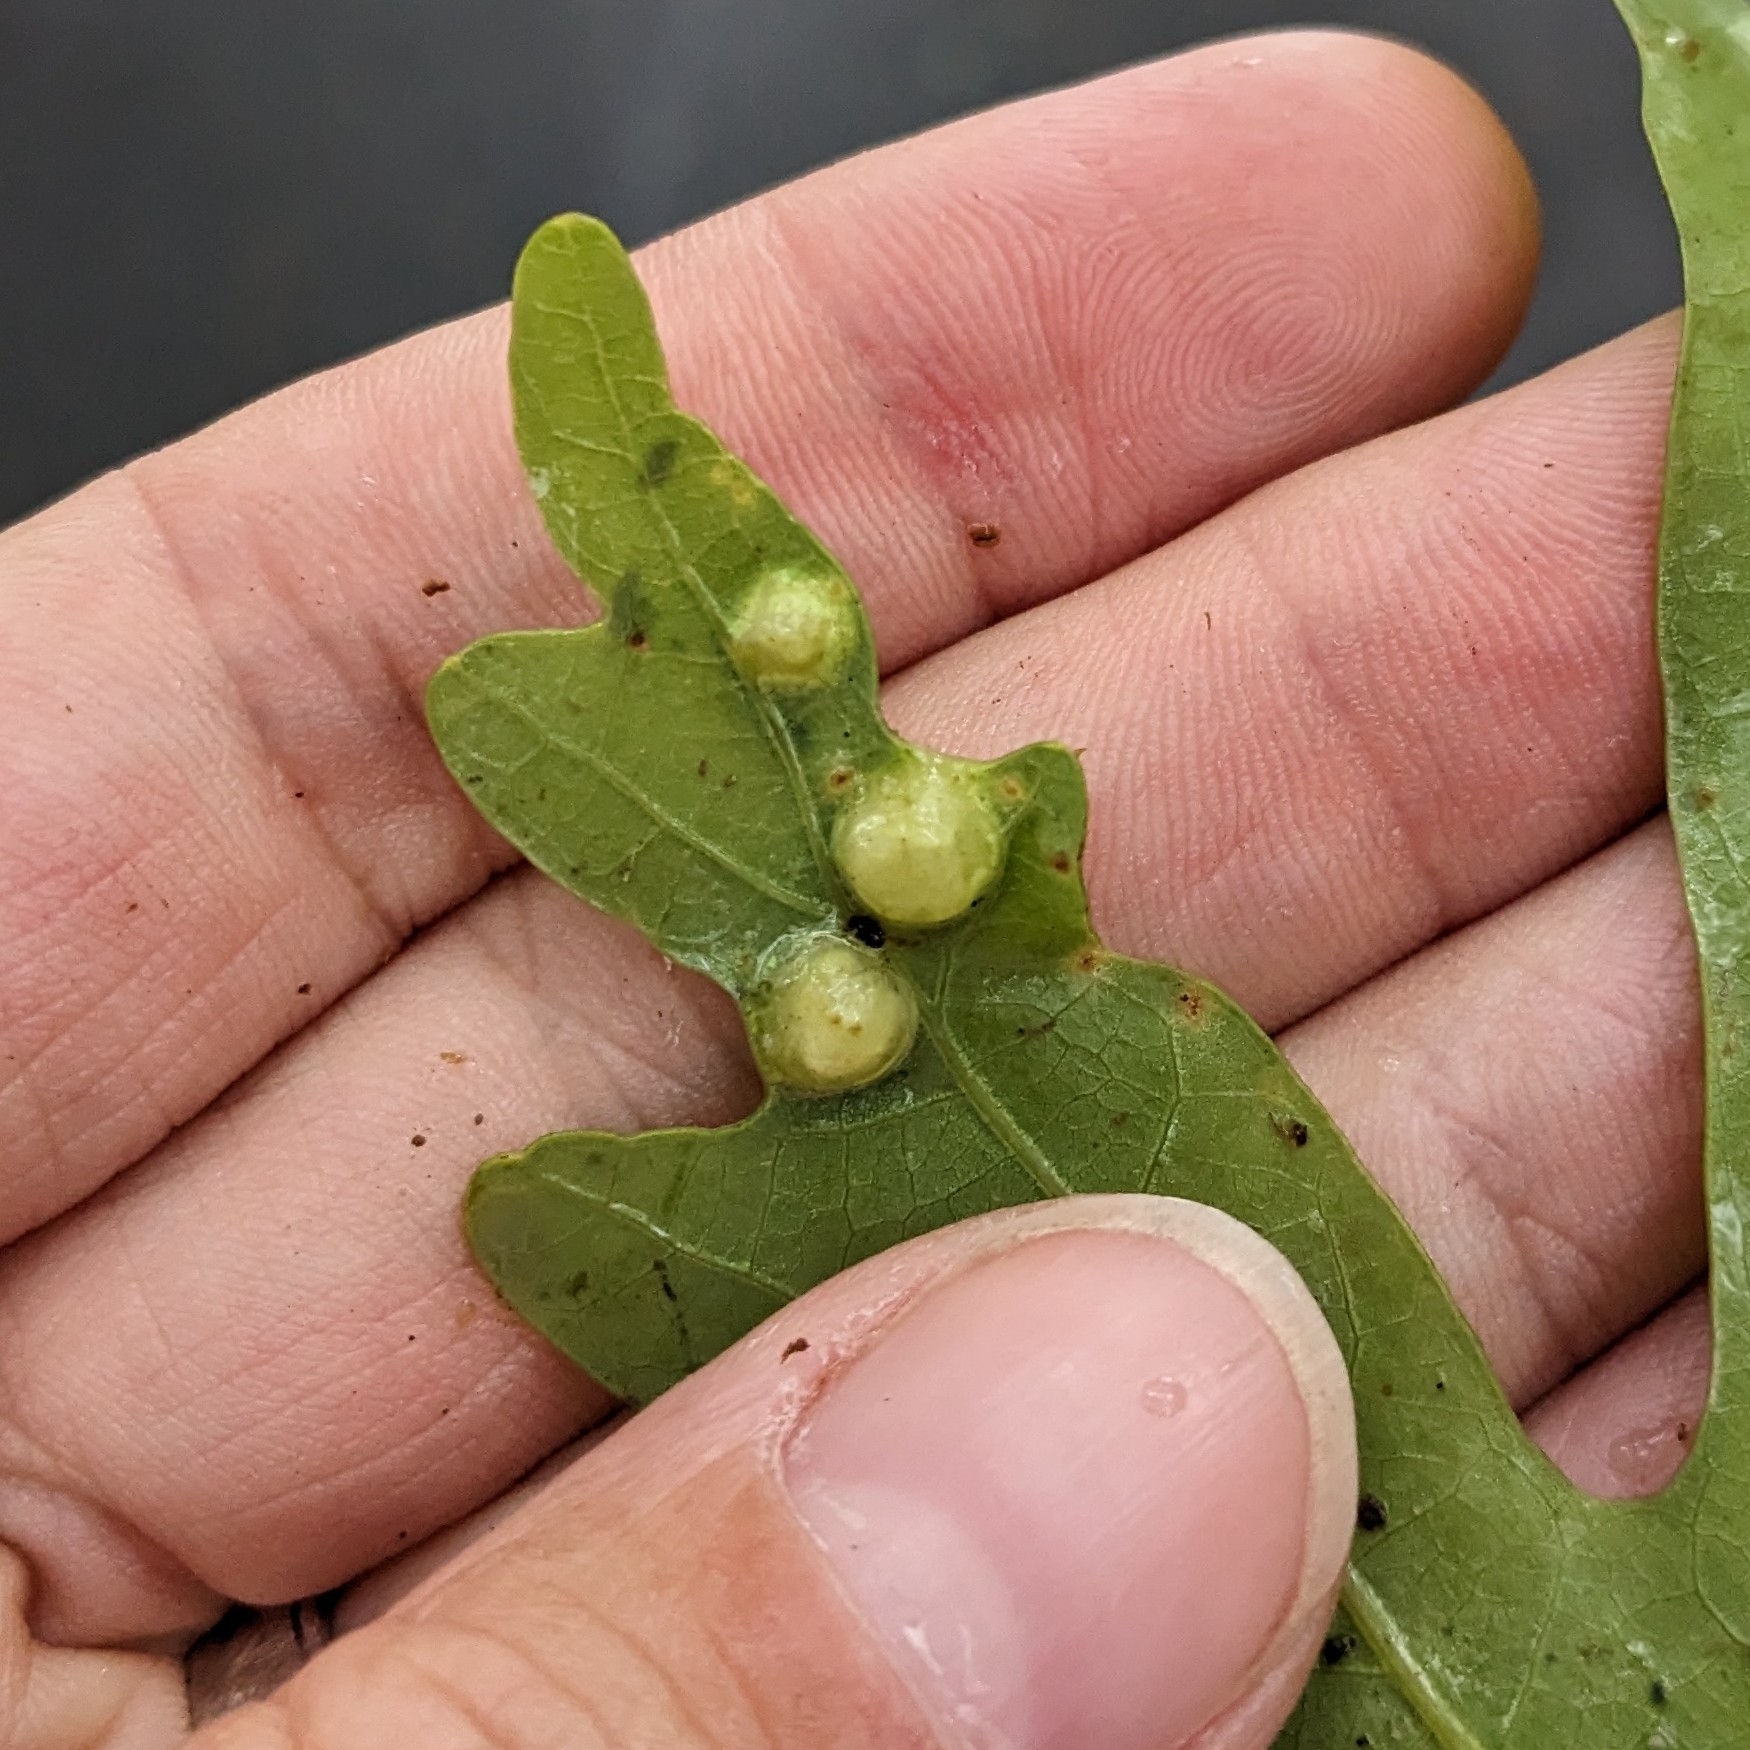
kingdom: Animalia
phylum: Arthropoda
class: Insecta
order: Hymenoptera
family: Cynipidae
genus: Callirhytis
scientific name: Callirhytis
